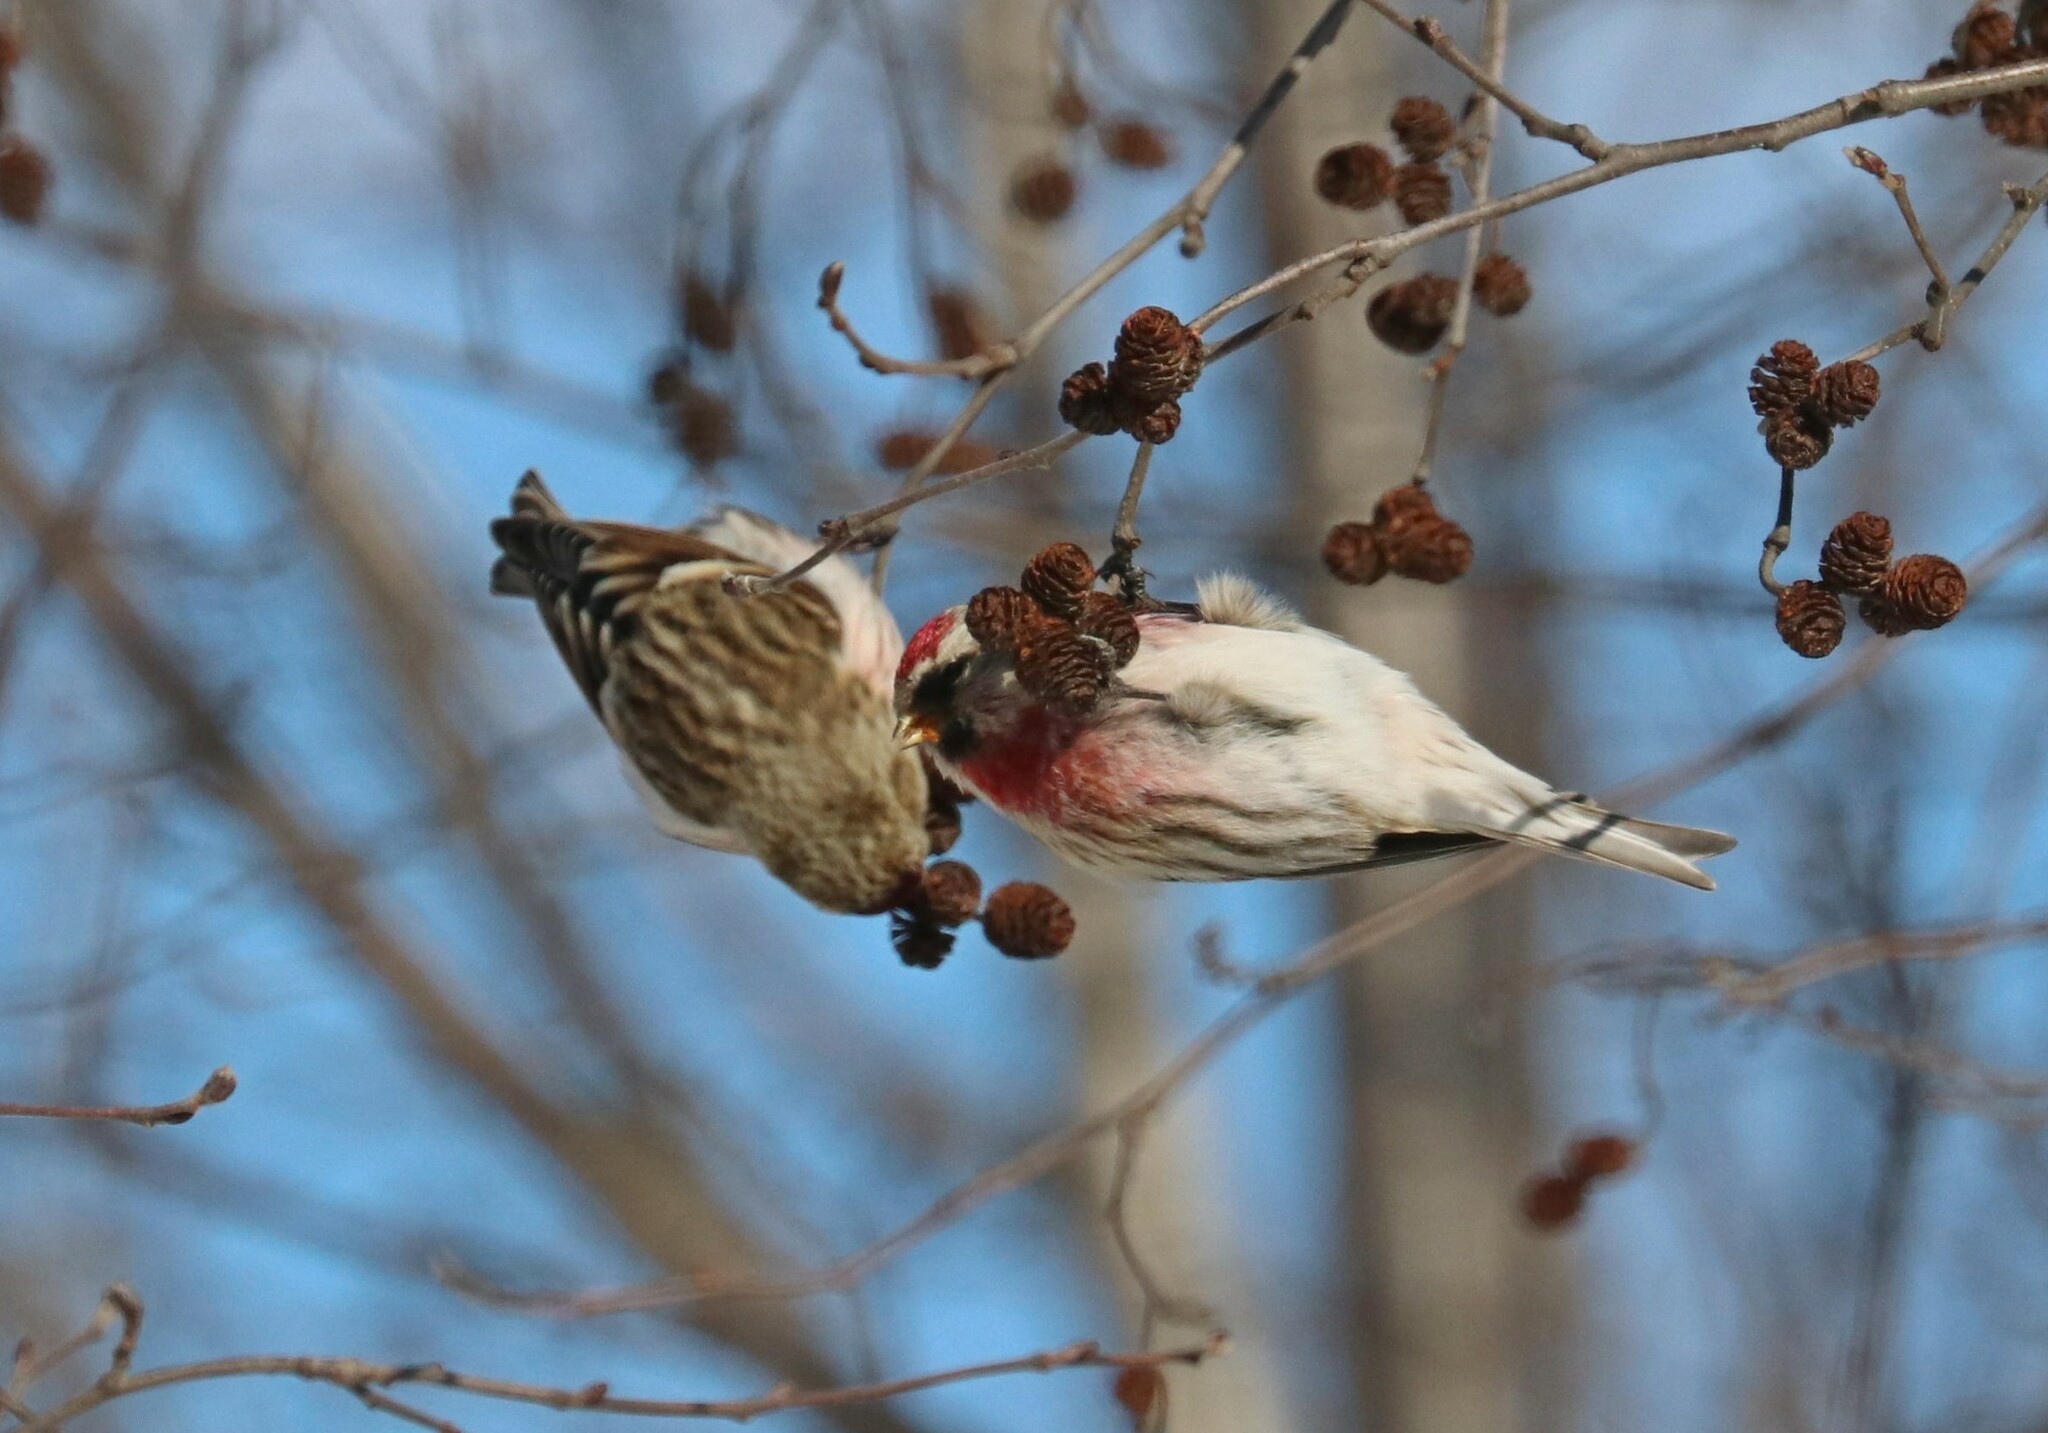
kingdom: Animalia
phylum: Chordata
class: Aves
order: Passeriformes
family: Fringillidae
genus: Acanthis
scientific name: Acanthis flammea
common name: Common redpoll
